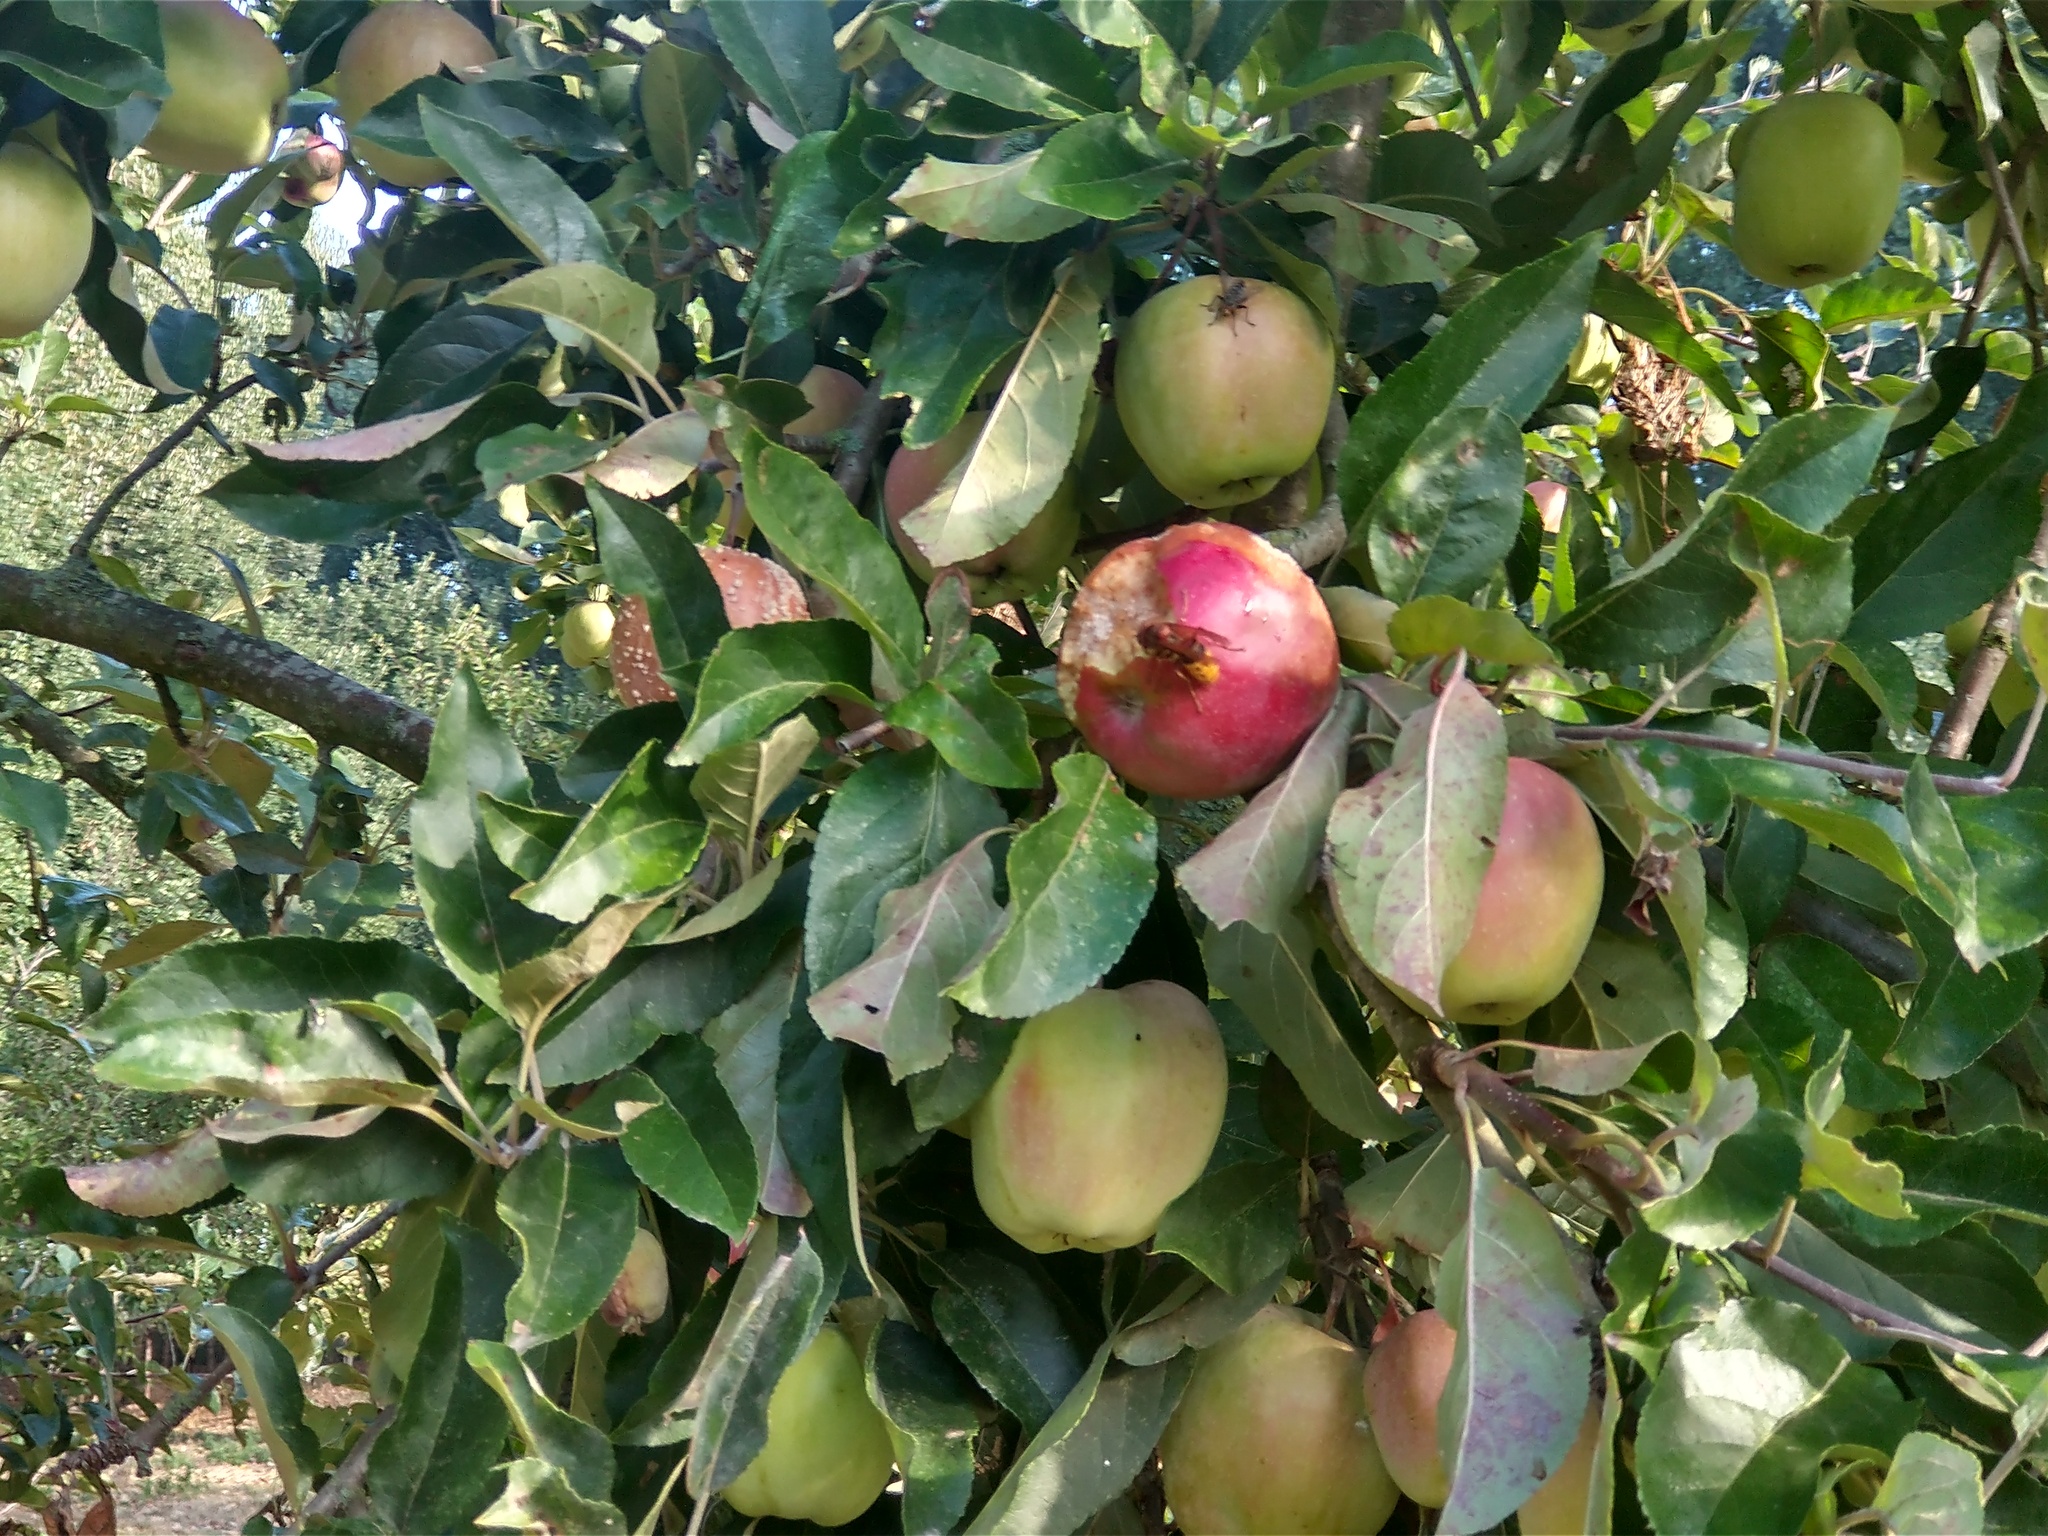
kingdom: Animalia
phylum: Arthropoda
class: Insecta
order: Hymenoptera
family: Vespidae
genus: Vespa
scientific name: Vespa crabro
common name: Hornet
